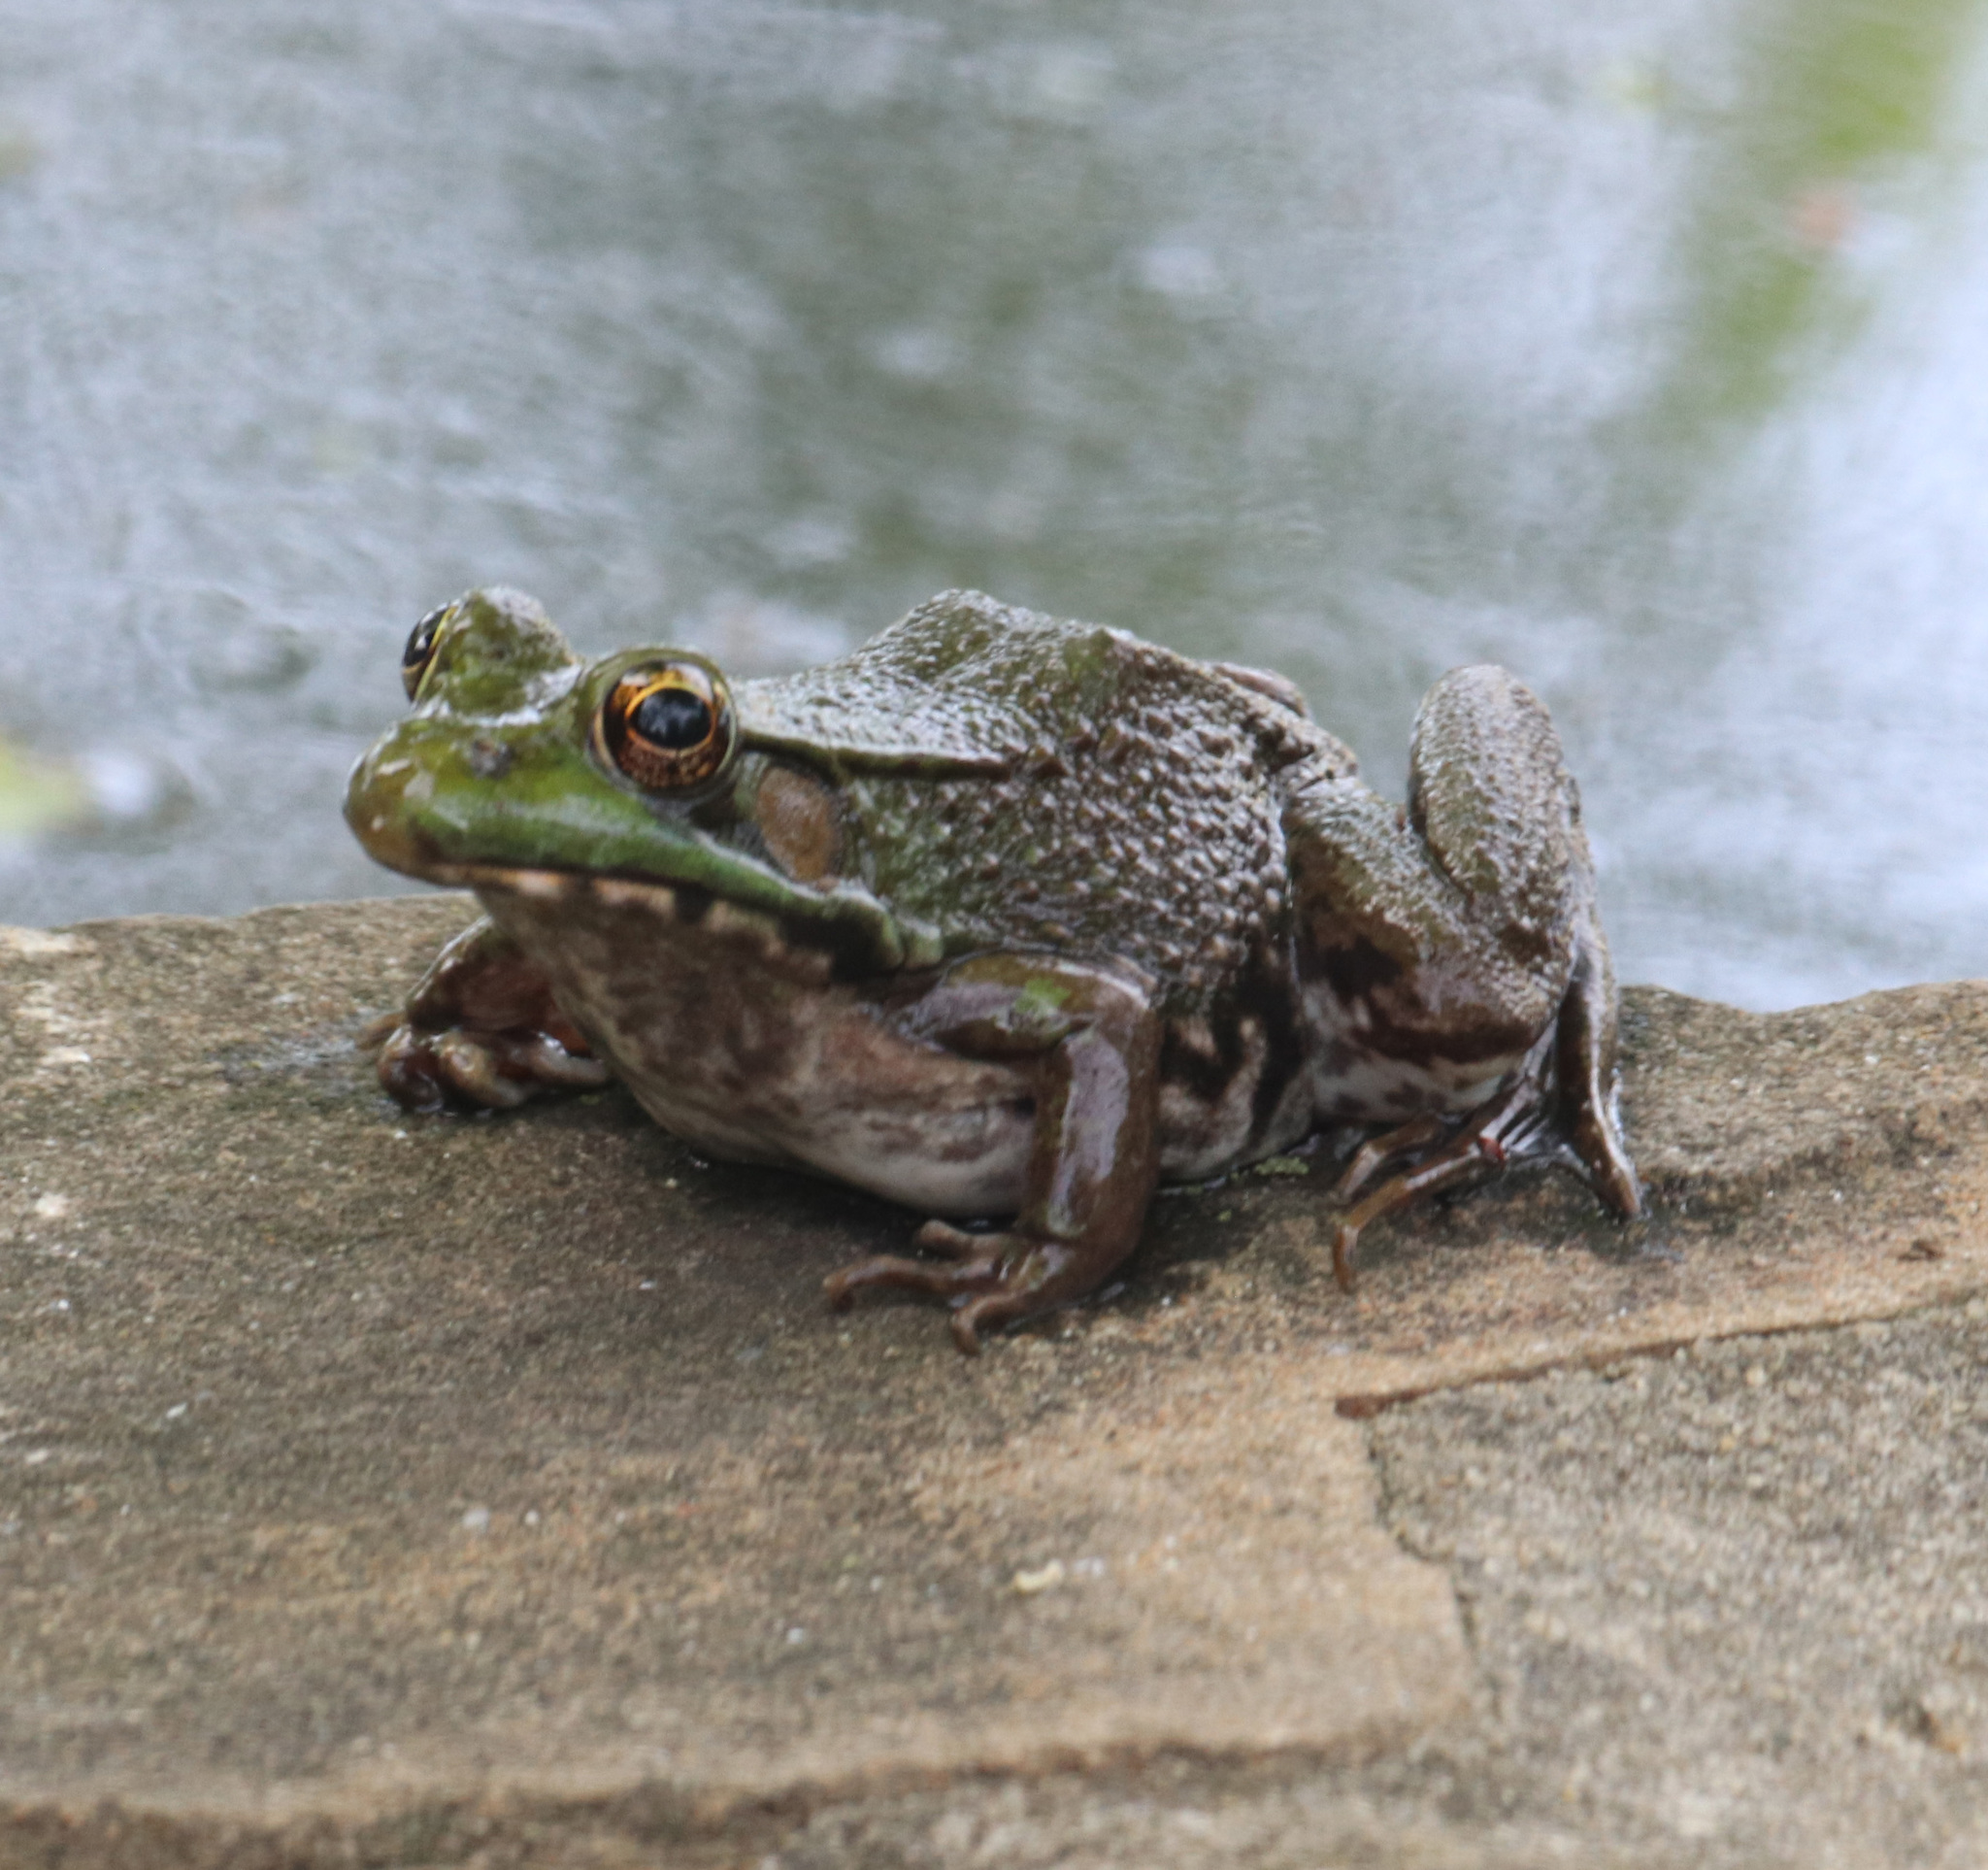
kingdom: Animalia
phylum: Chordata
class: Amphibia
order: Anura
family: Ranidae
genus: Lithobates
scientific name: Lithobates clamitans
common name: Green frog
